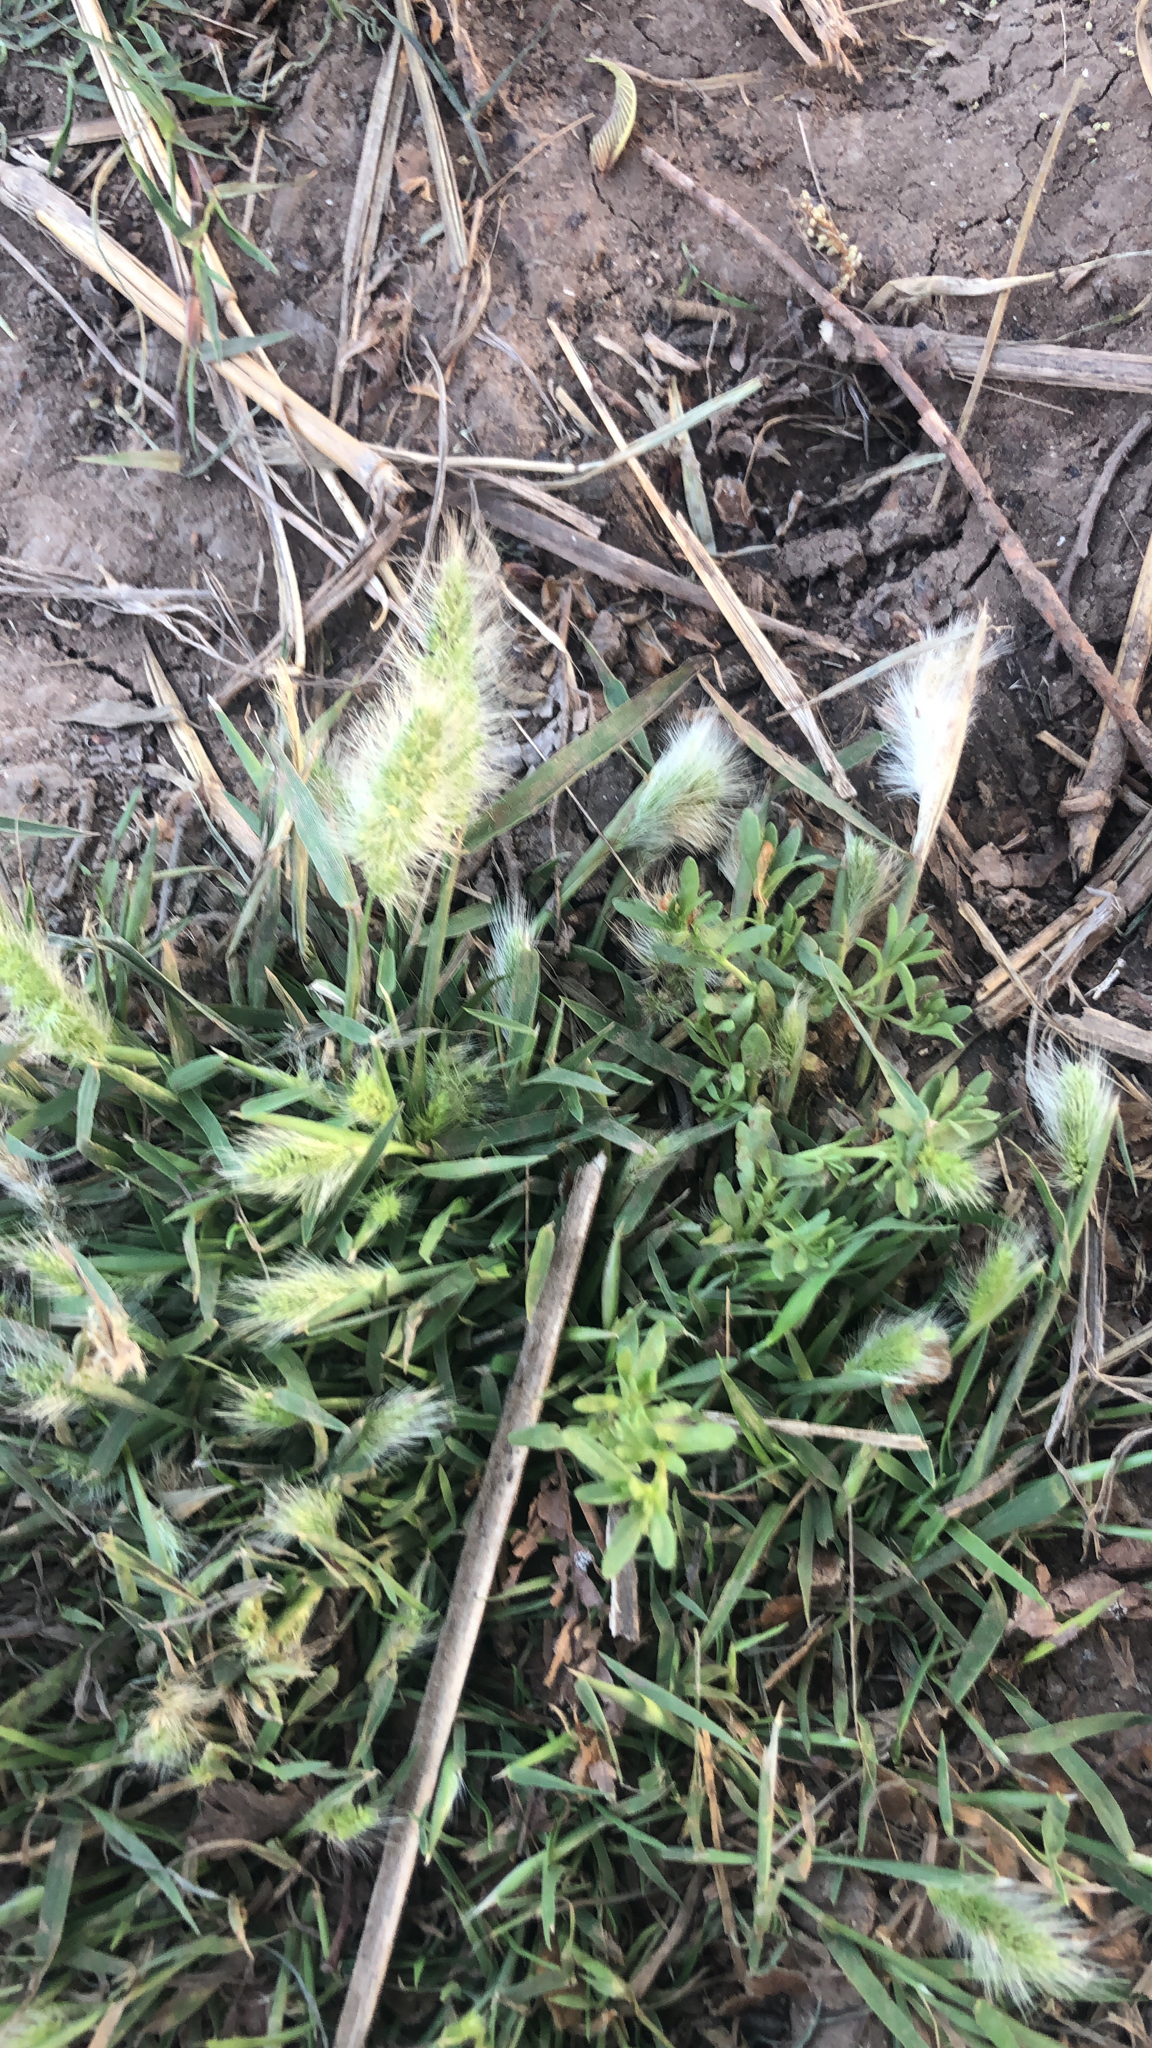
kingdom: Plantae
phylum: Tracheophyta
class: Liliopsida
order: Poales
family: Poaceae
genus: Polypogon
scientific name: Polypogon monspeliensis
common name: Annual rabbitsfoot grass
